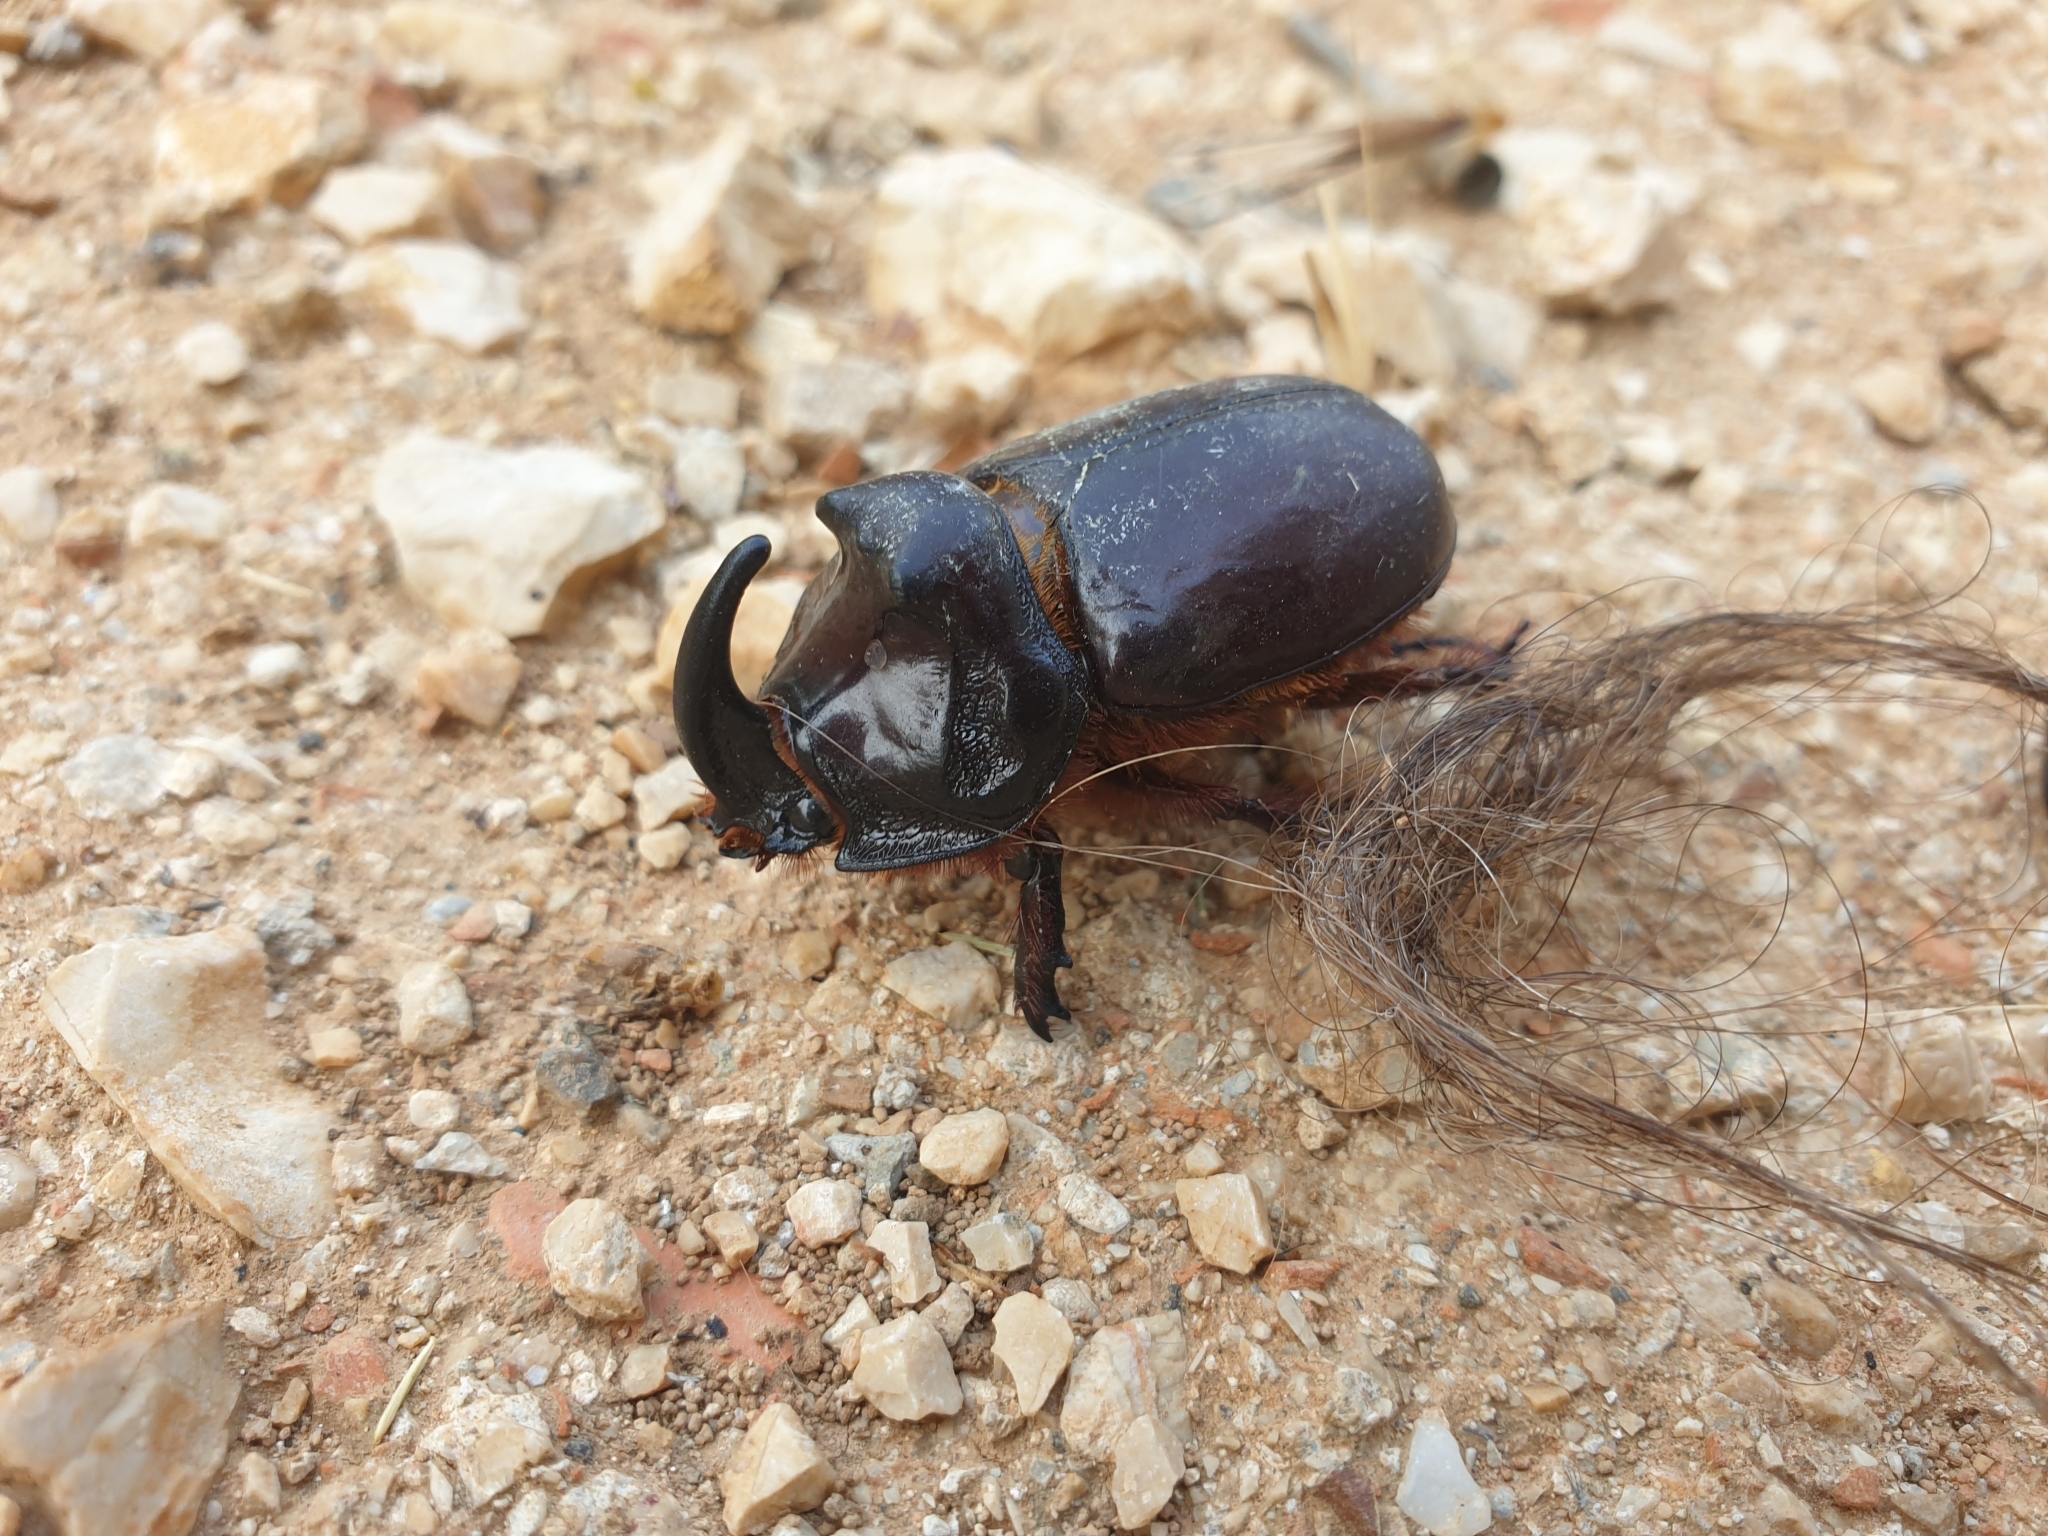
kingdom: Animalia
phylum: Arthropoda
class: Insecta
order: Coleoptera
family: Scarabaeidae
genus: Oryctes
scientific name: Oryctes nasicornis
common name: European rhinoceros beetle
